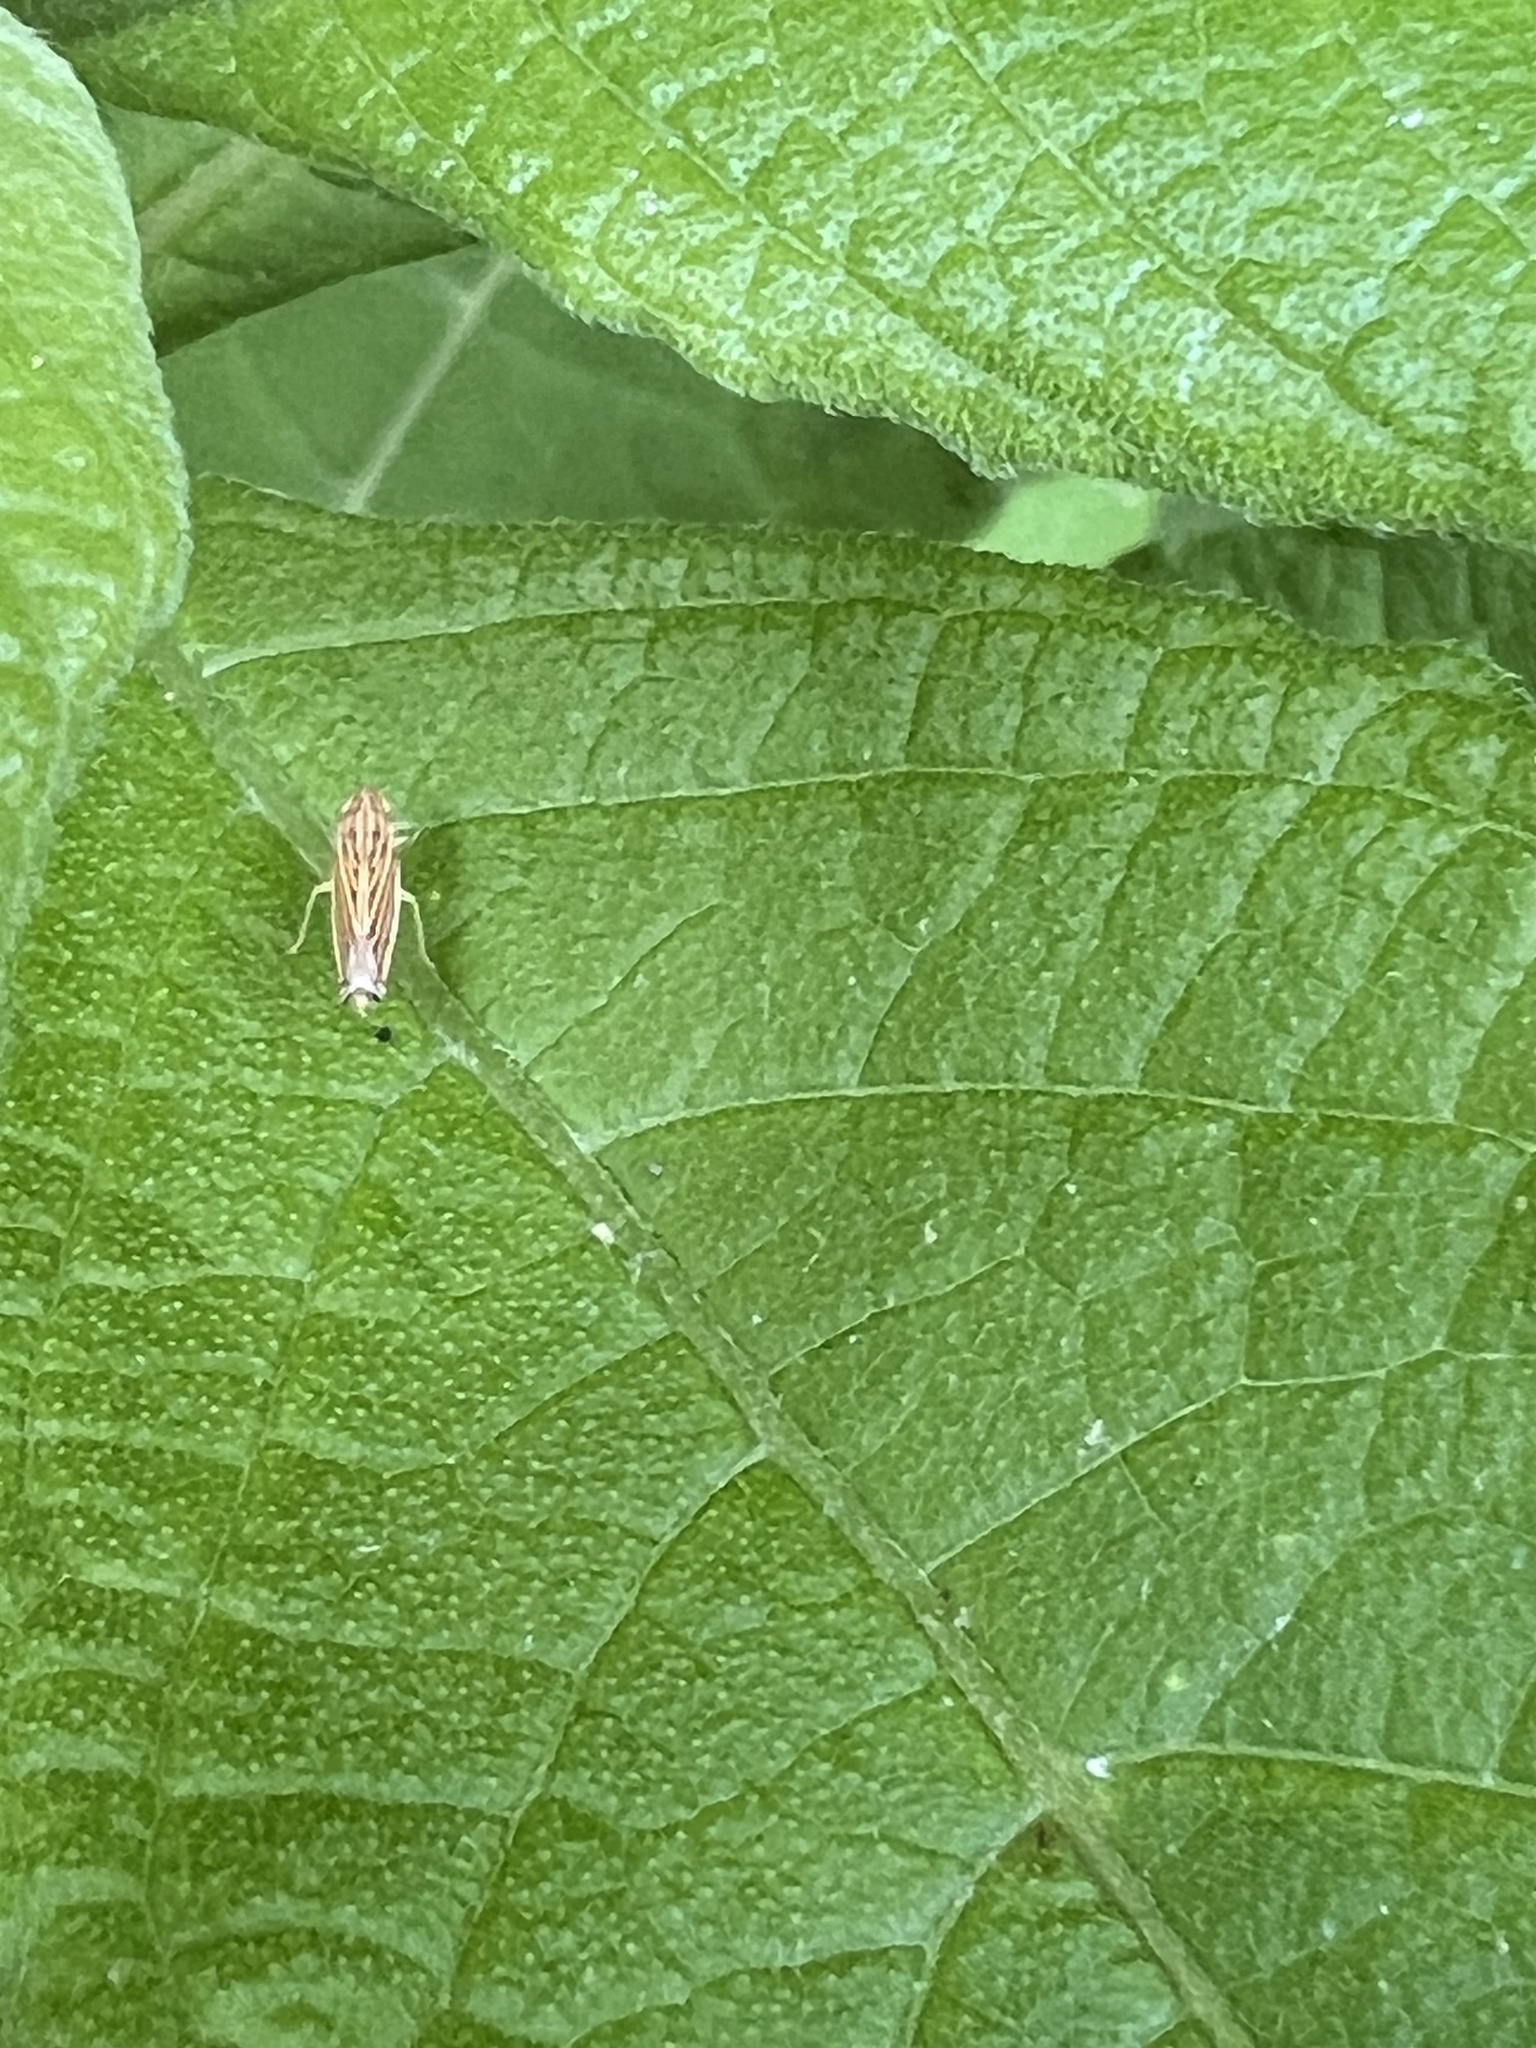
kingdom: Animalia
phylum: Arthropoda
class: Insecta
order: Hemiptera
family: Cicadellidae
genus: Sibovia
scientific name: Sibovia occatoria
